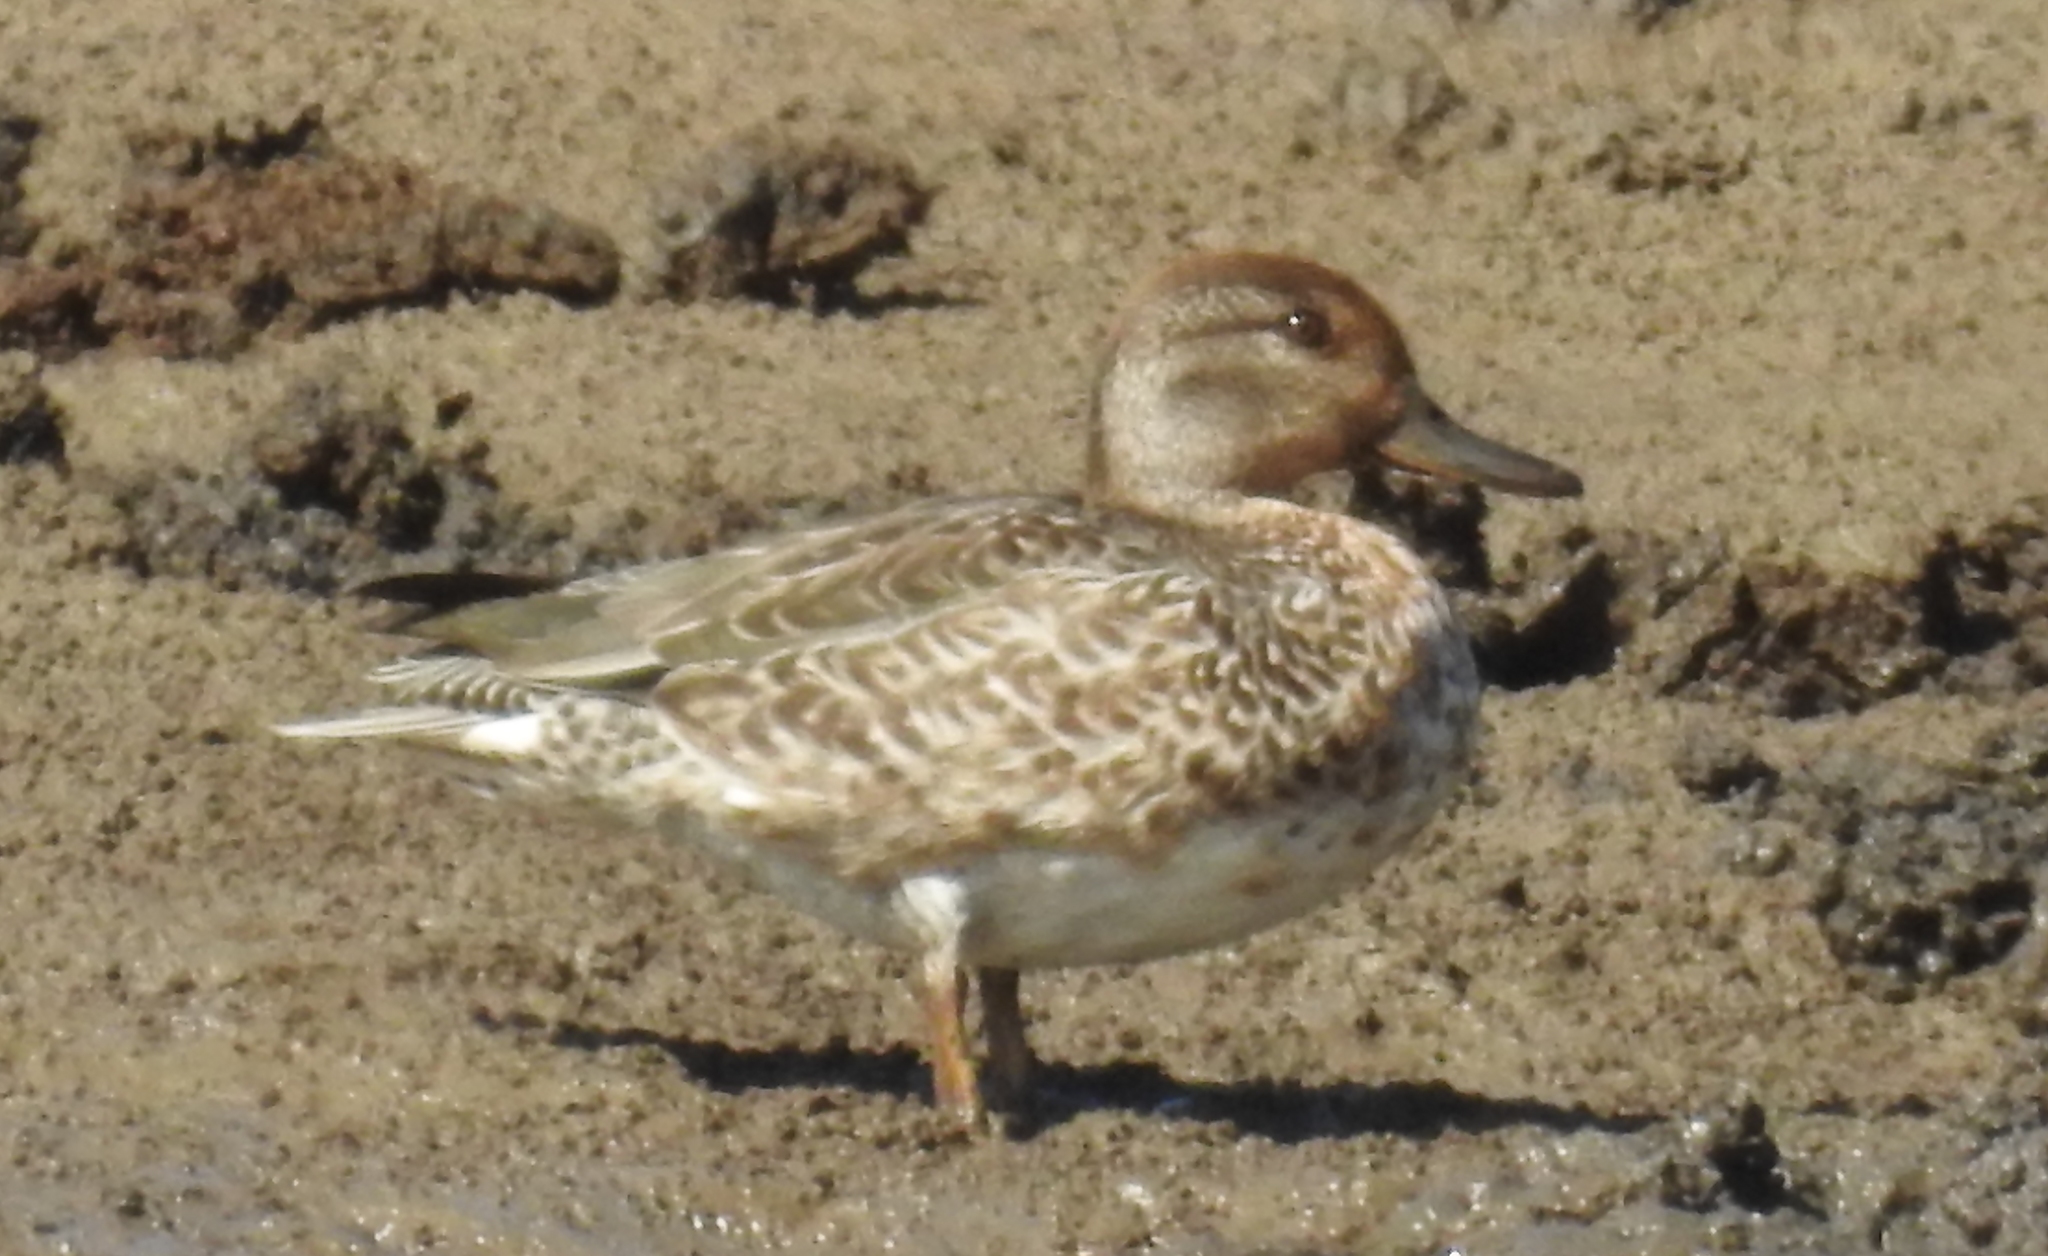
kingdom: Animalia
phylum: Chordata
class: Aves
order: Anseriformes
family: Anatidae
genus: Anas
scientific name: Anas crecca
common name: Eurasian teal
